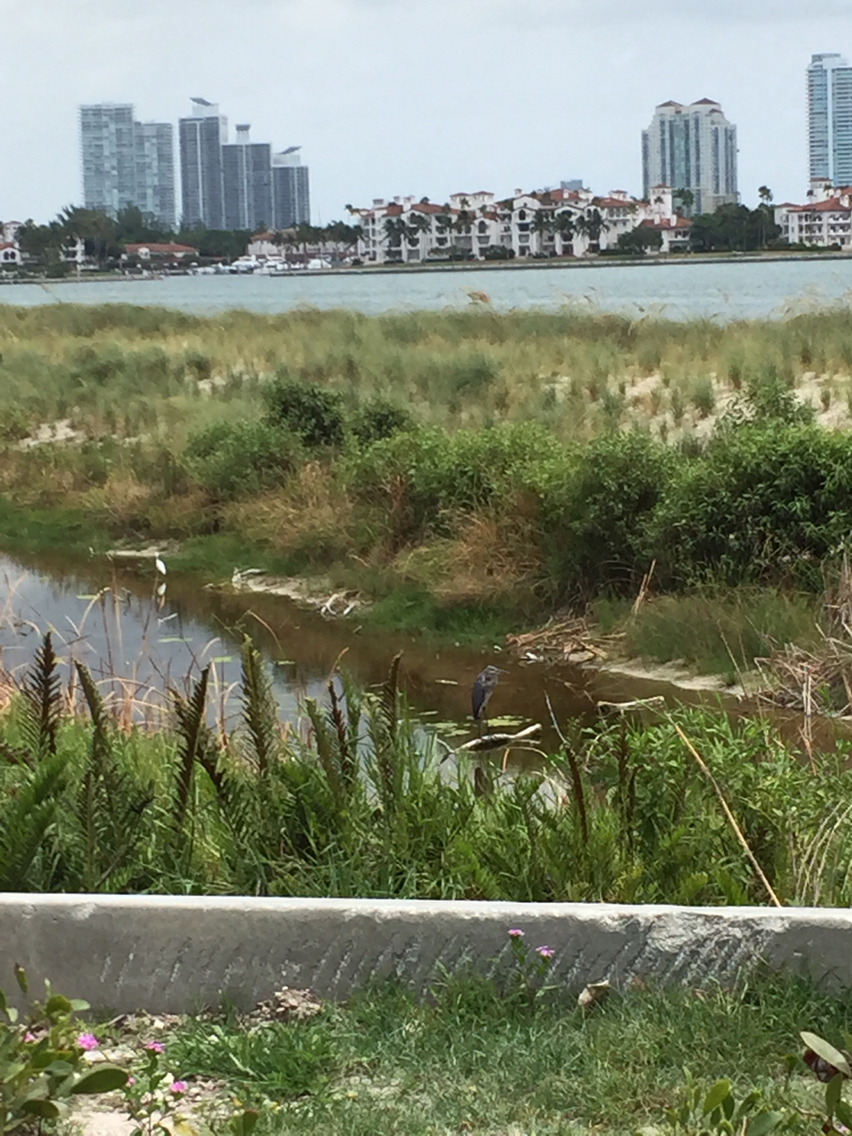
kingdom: Animalia
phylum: Chordata
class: Aves
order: Pelecaniformes
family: Ardeidae
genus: Ardea
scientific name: Ardea herodias
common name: Great blue heron
